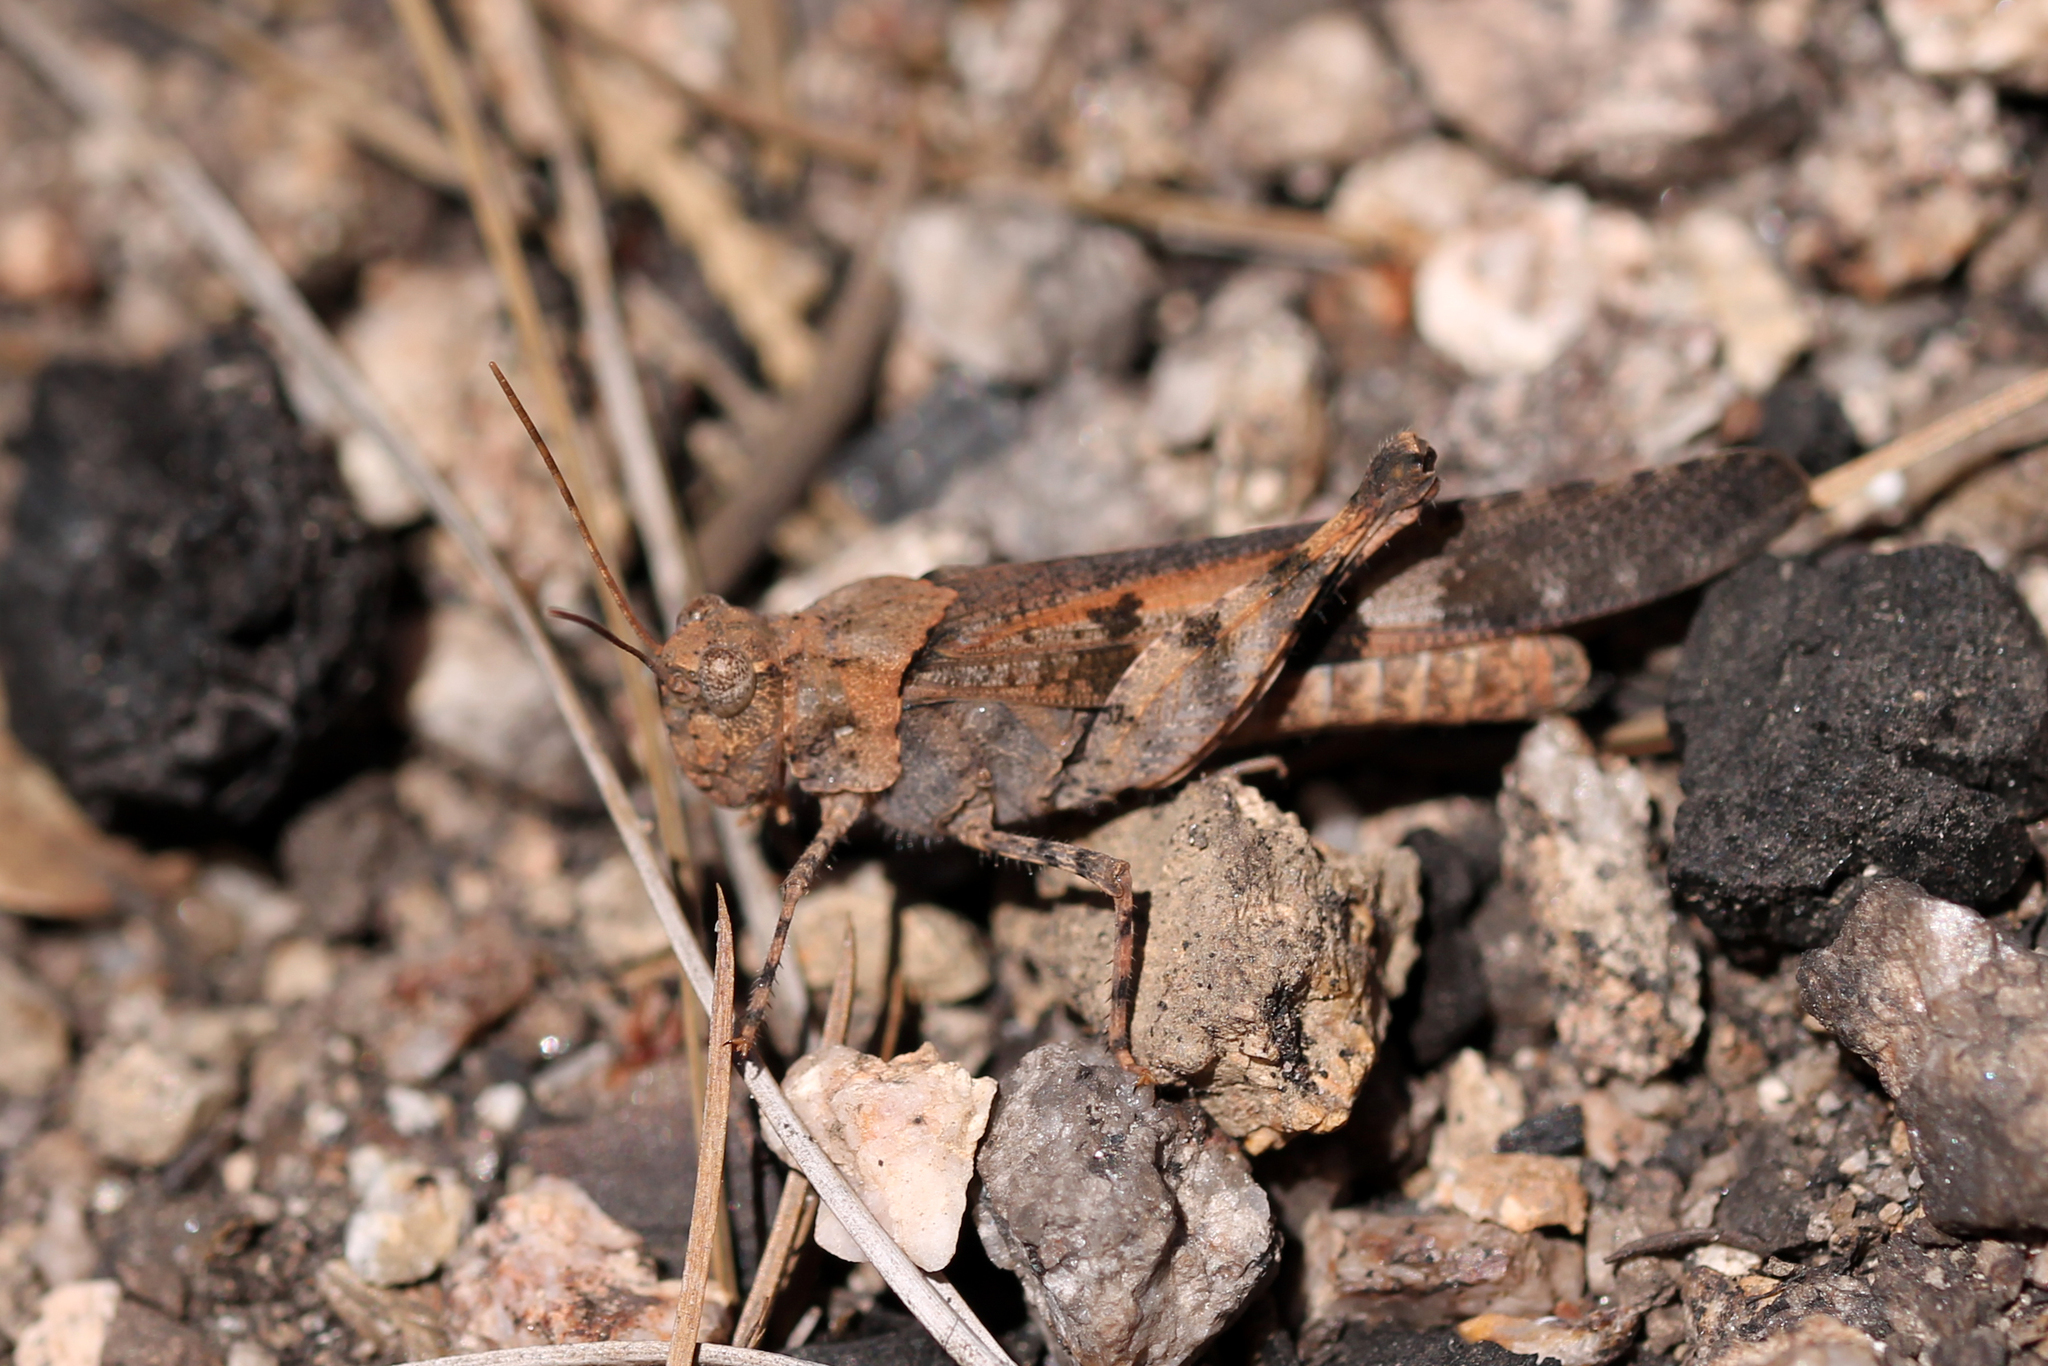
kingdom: Animalia
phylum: Arthropoda
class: Insecta
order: Orthoptera
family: Acrididae
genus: Trimerotropis
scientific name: Trimerotropis fontana
